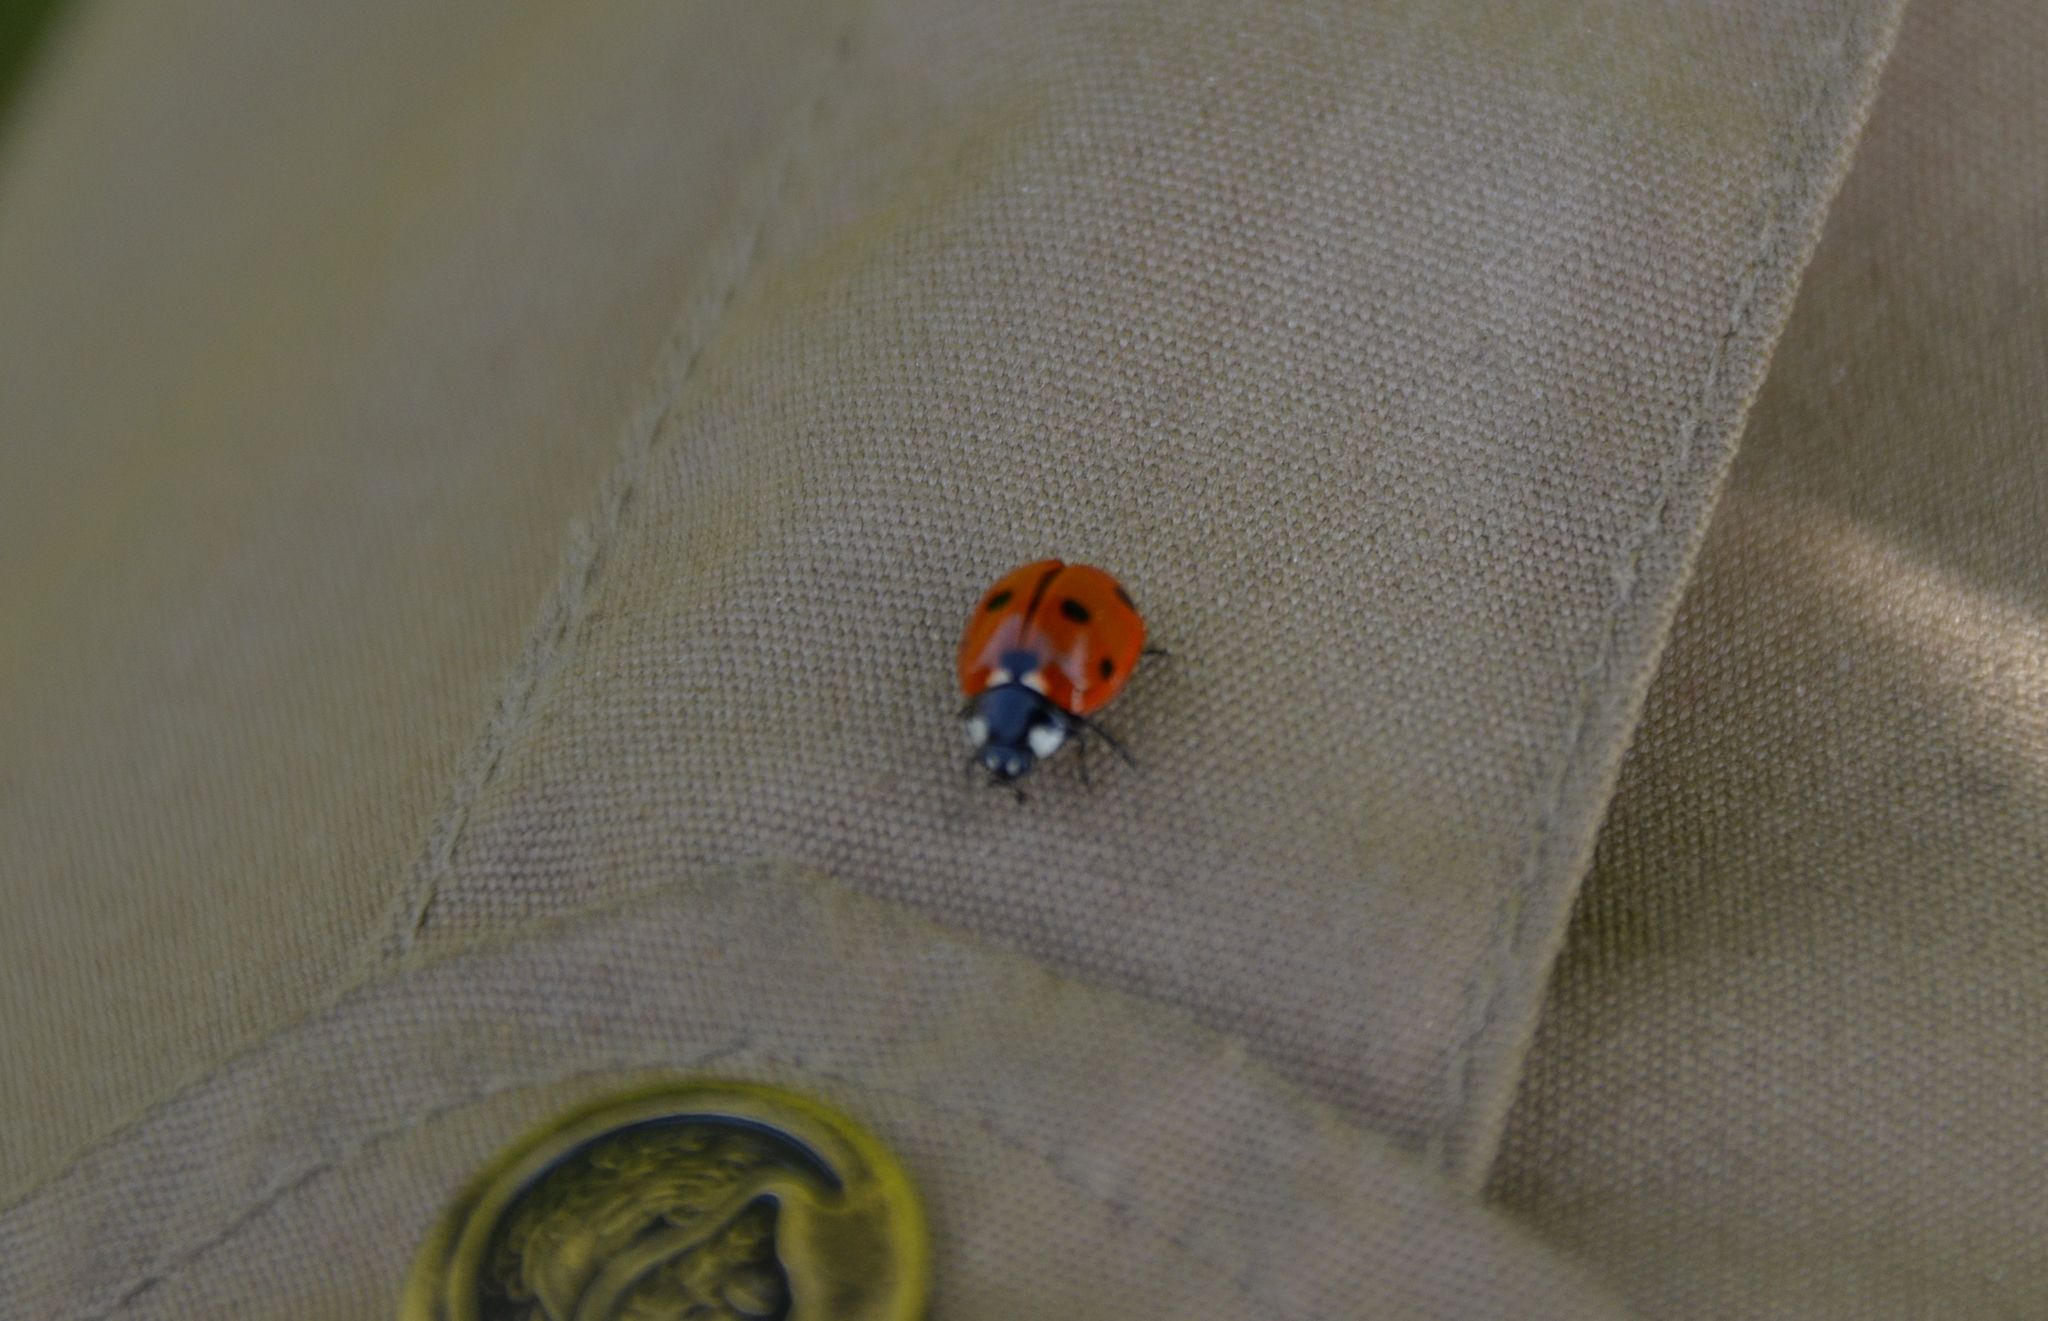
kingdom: Animalia
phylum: Arthropoda
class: Insecta
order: Coleoptera
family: Coccinellidae
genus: Coccinella
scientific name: Coccinella septempunctata
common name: Sevenspotted lady beetle
